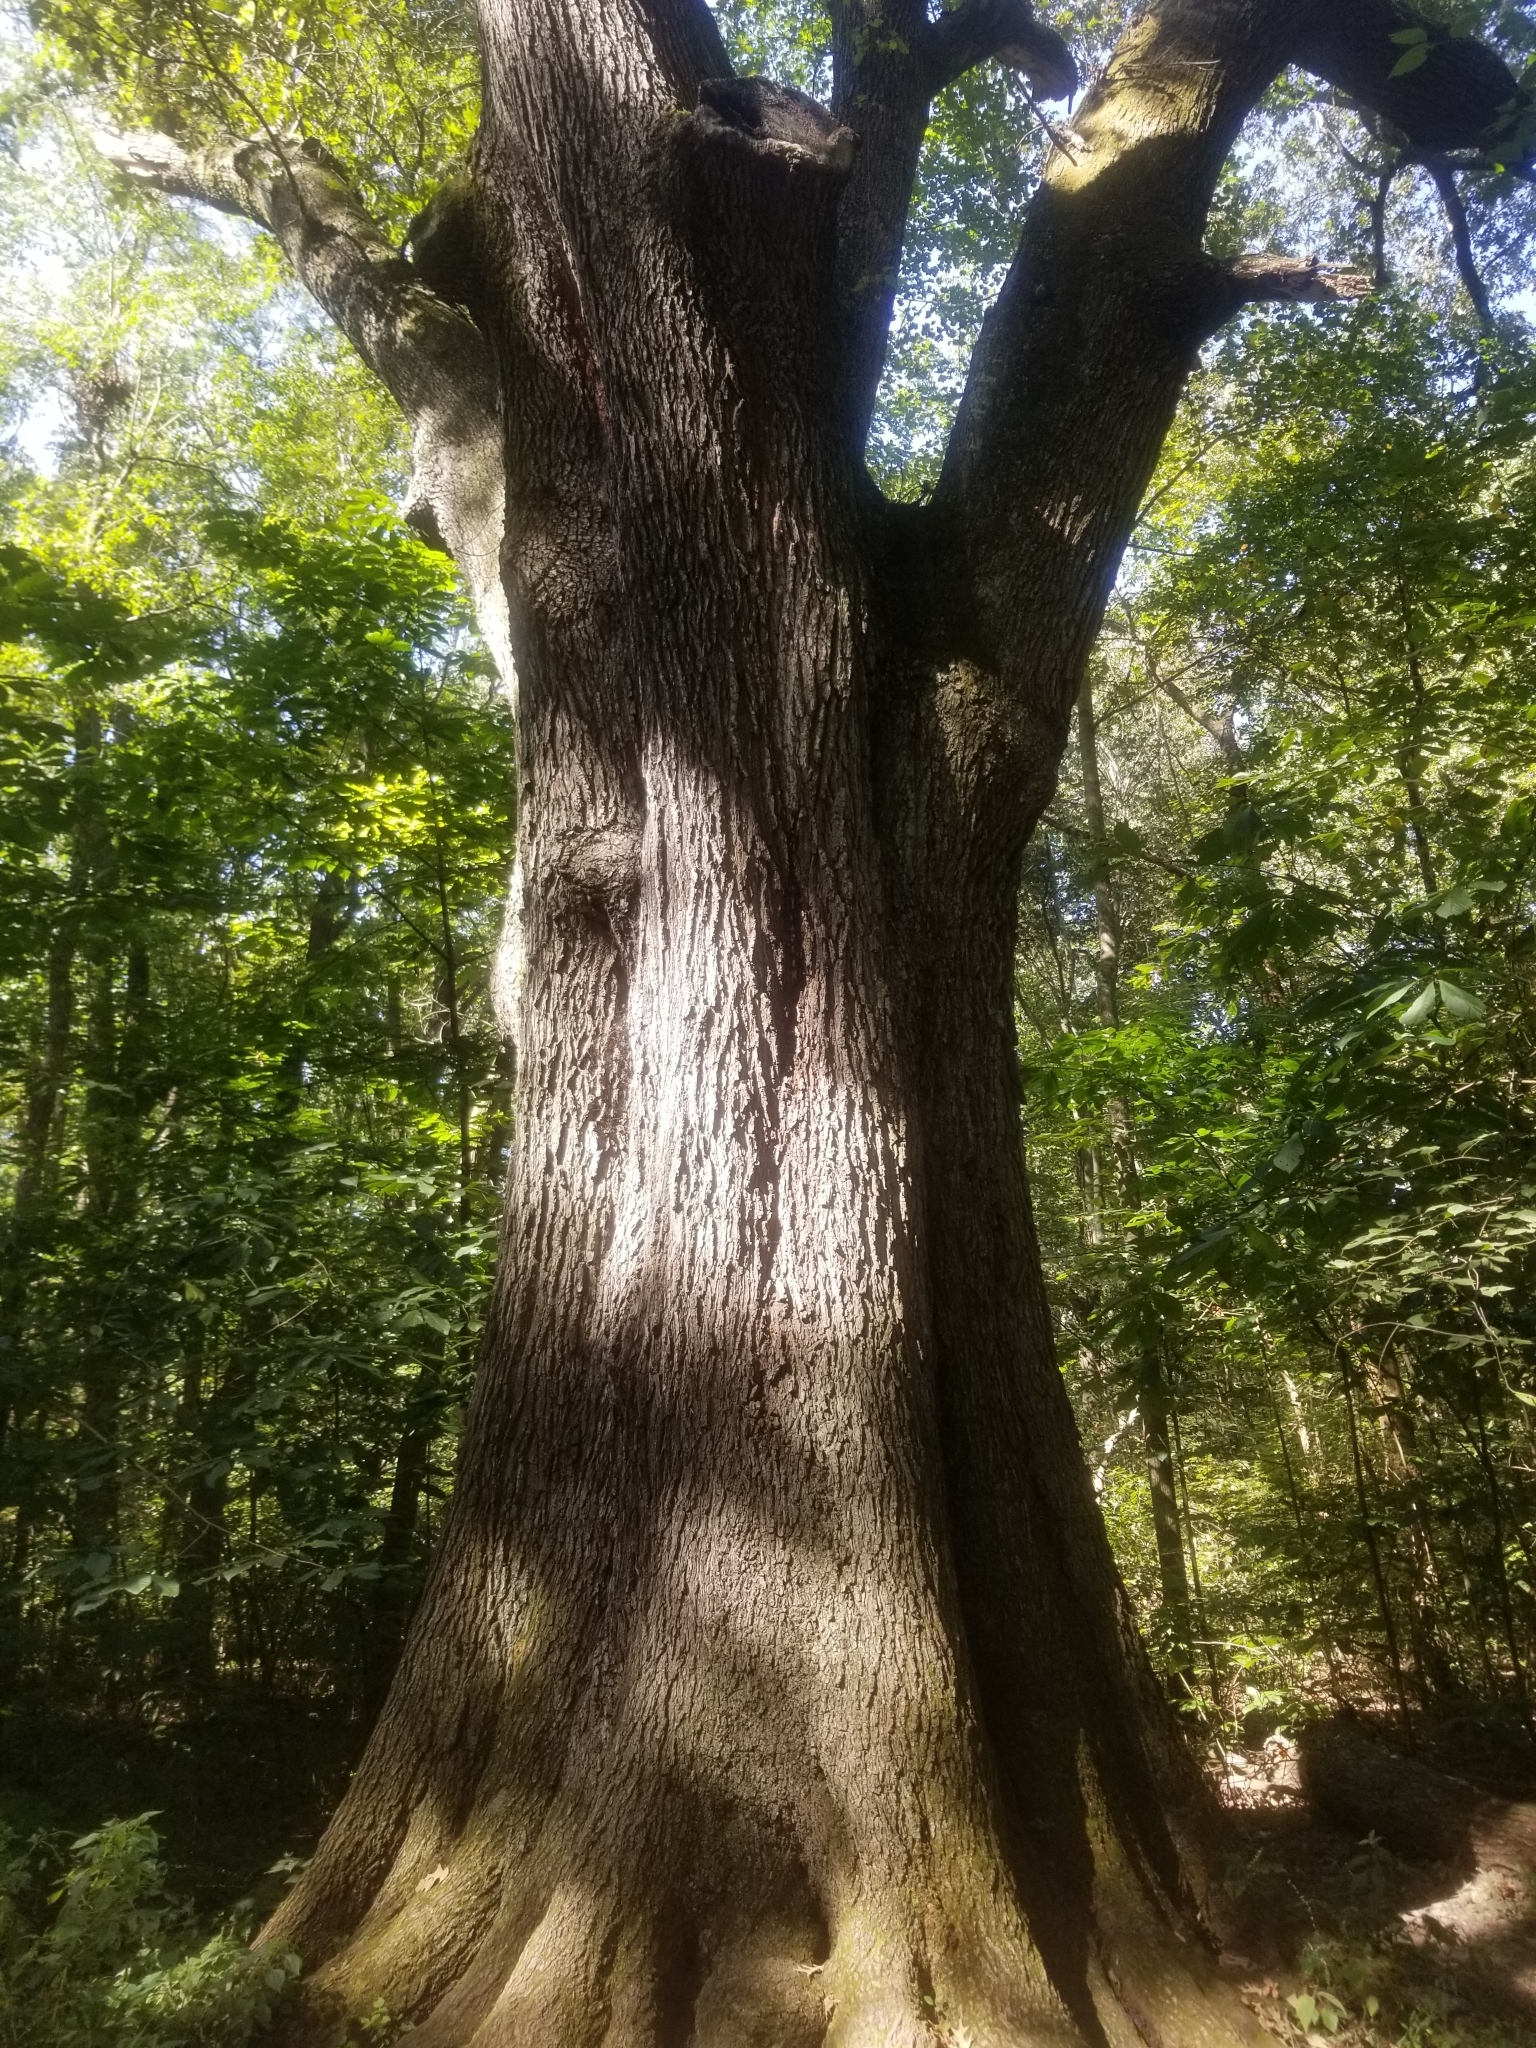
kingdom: Plantae
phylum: Tracheophyta
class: Magnoliopsida
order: Fagales
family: Fagaceae
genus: Quercus
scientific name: Quercus pagoda
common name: Cherrybark oak
